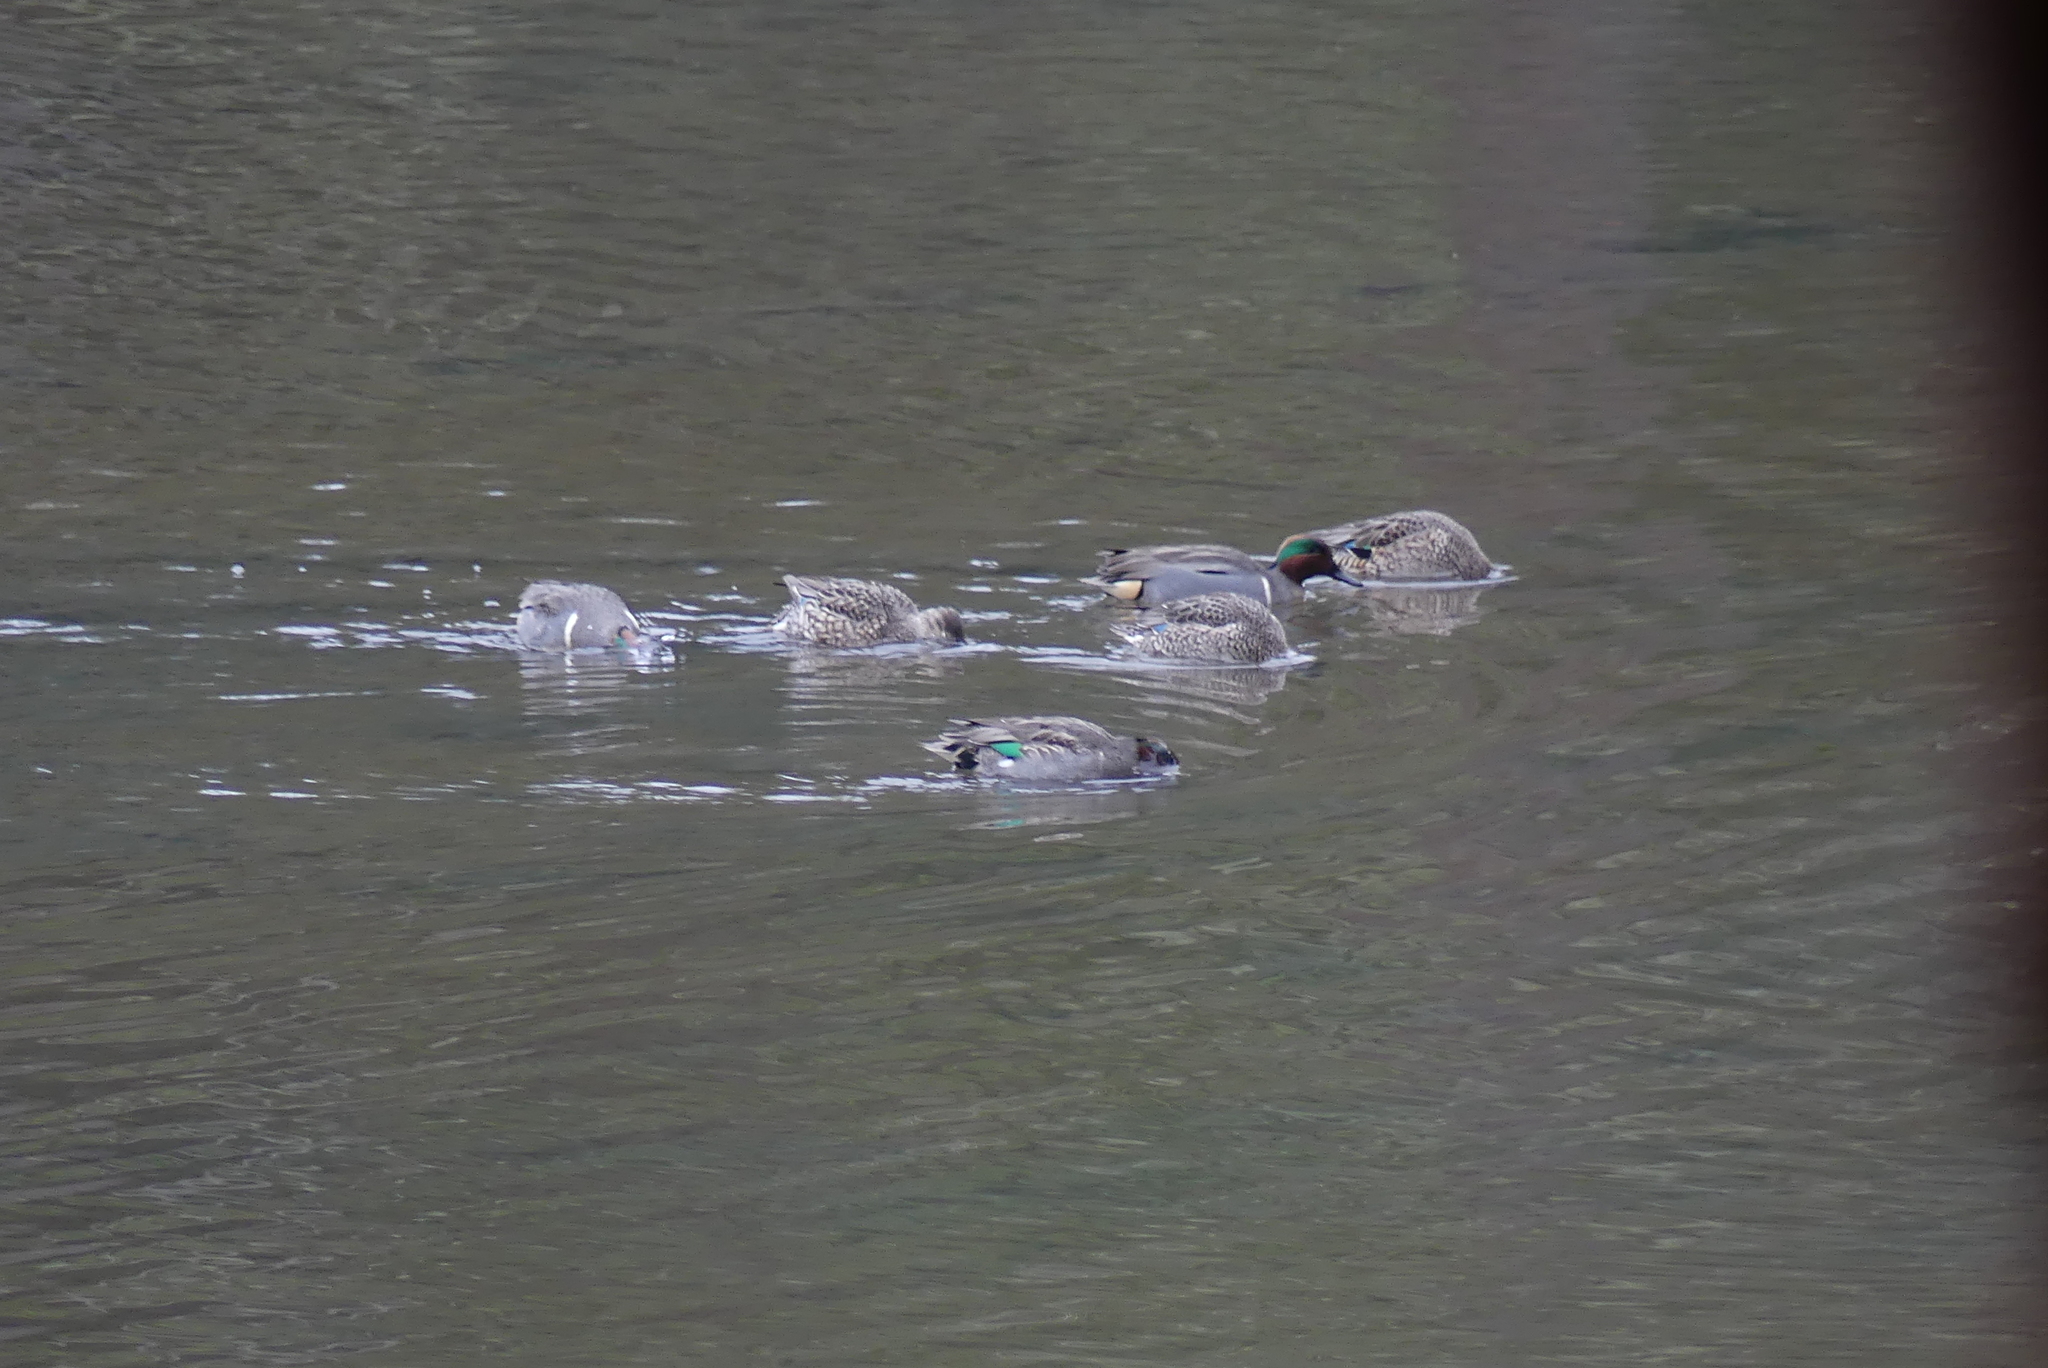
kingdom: Animalia
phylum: Chordata
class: Aves
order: Anseriformes
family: Anatidae
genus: Anas
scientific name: Anas crecca
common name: Eurasian teal
